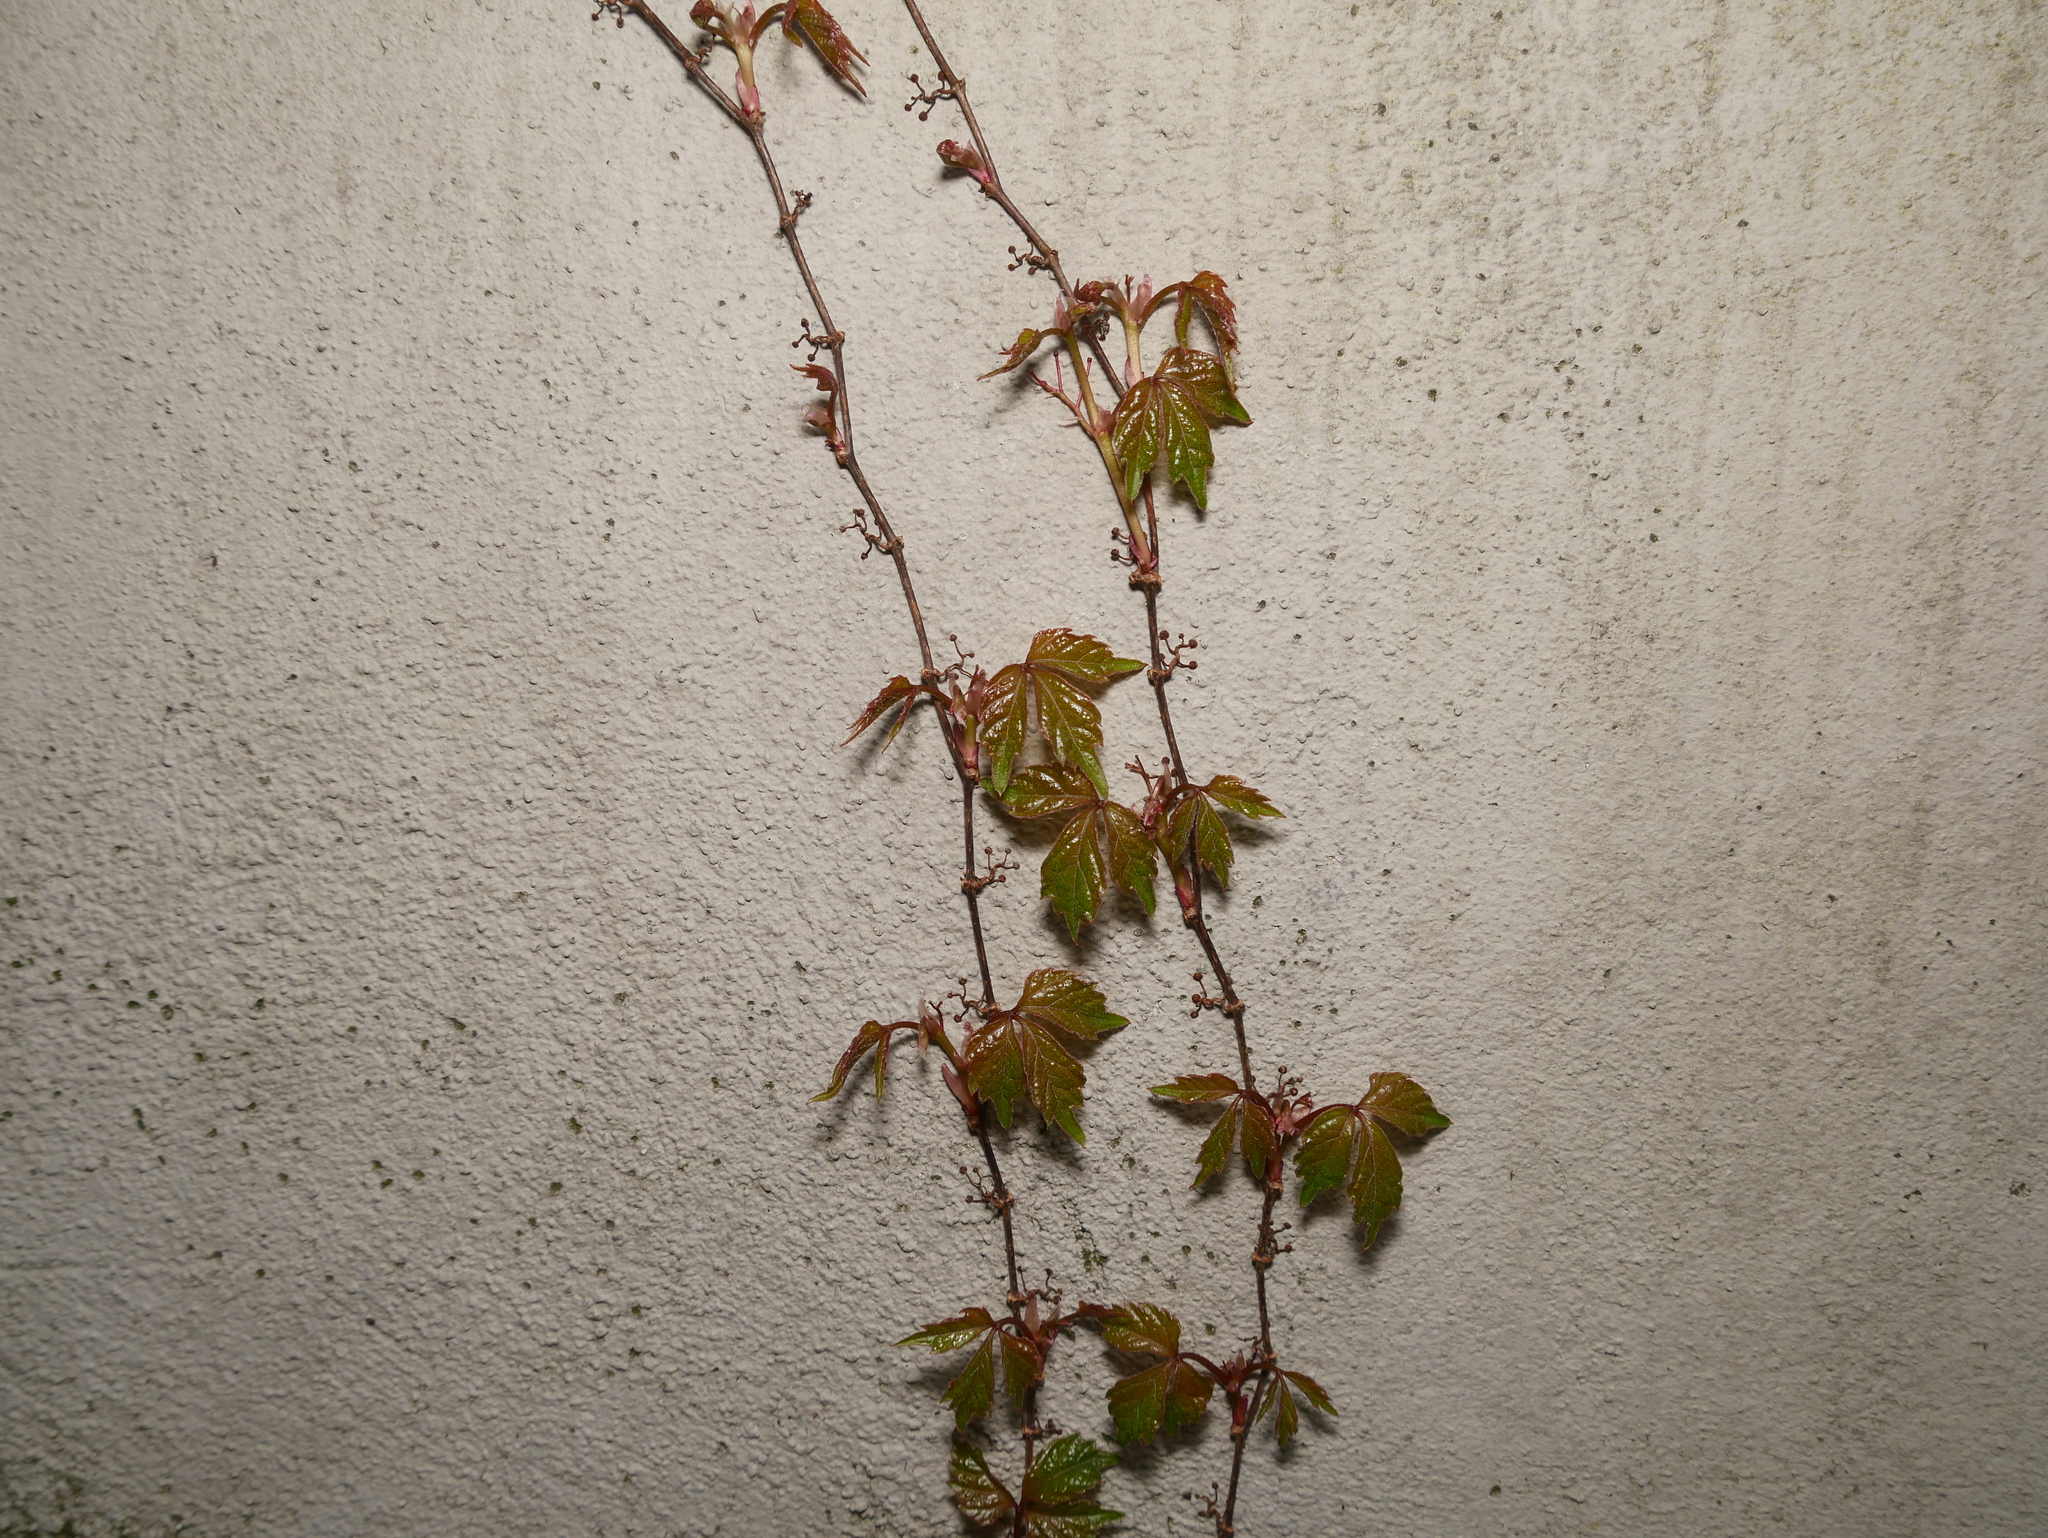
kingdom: Plantae
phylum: Tracheophyta
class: Magnoliopsida
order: Vitales
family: Vitaceae
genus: Parthenocissus
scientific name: Parthenocissus quinquefolia
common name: Virginia-creeper
